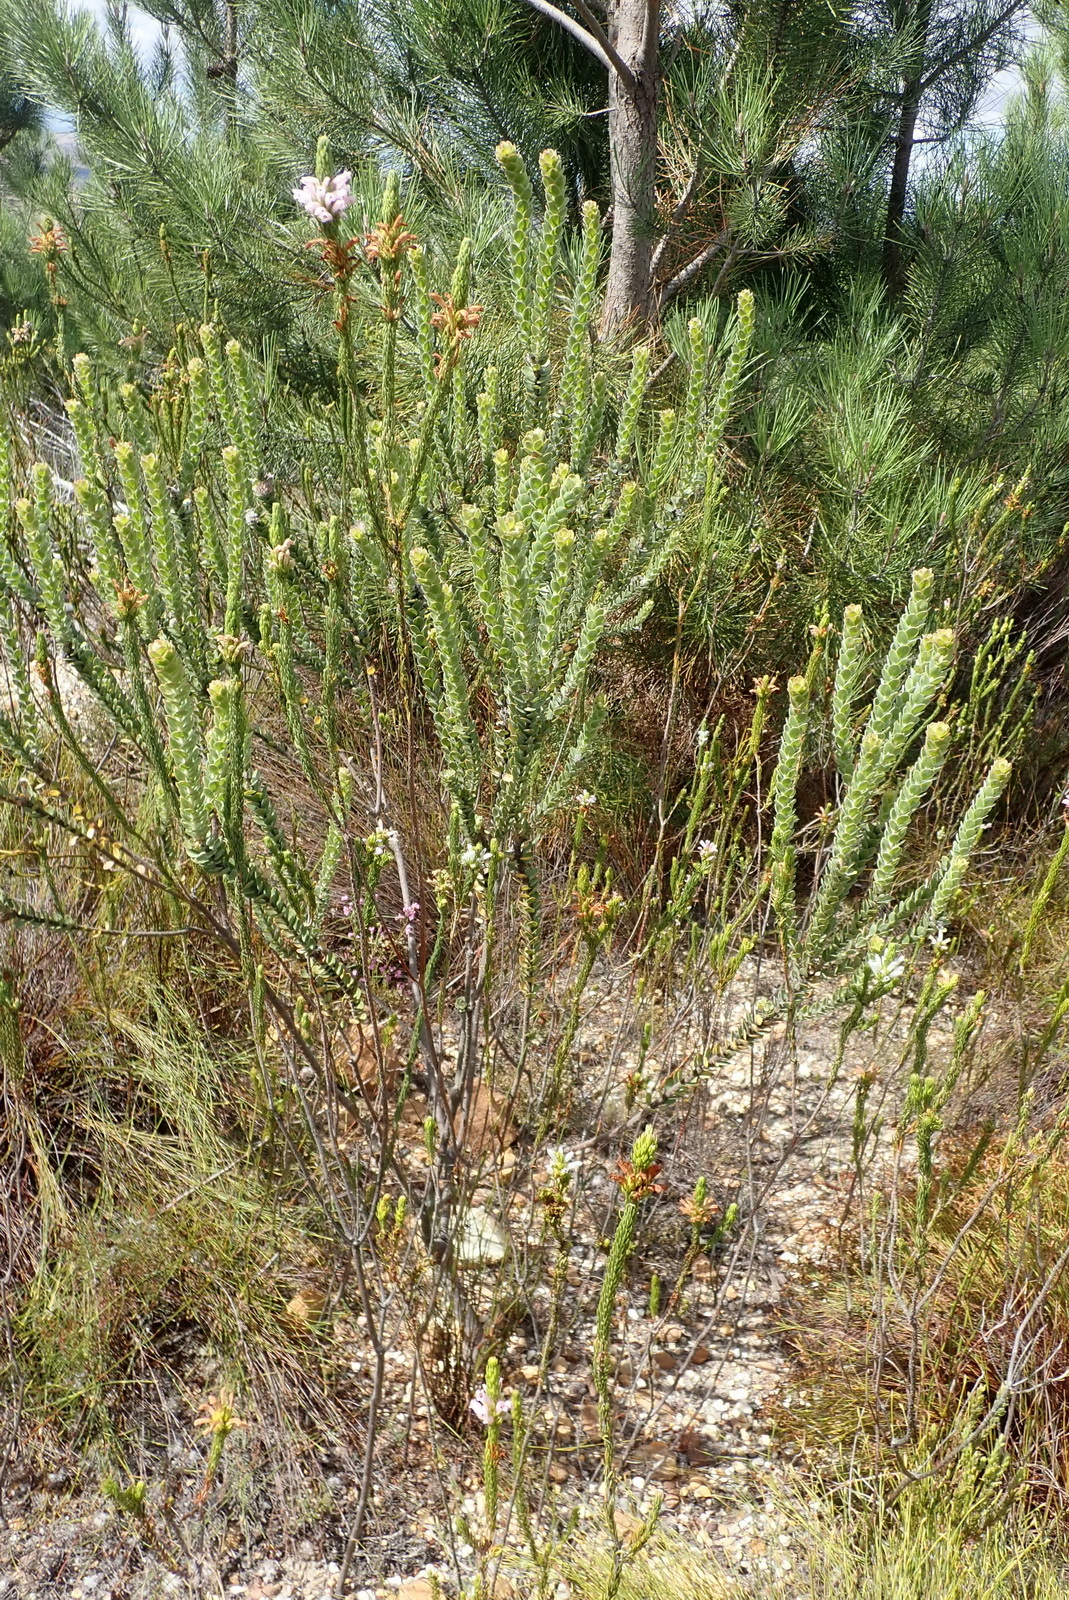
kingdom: Plantae
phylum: Tracheophyta
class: Magnoliopsida
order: Proteales
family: Proteaceae
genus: Leucospermum
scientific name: Leucospermum truncatulum
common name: Oval-leaf pincushion
